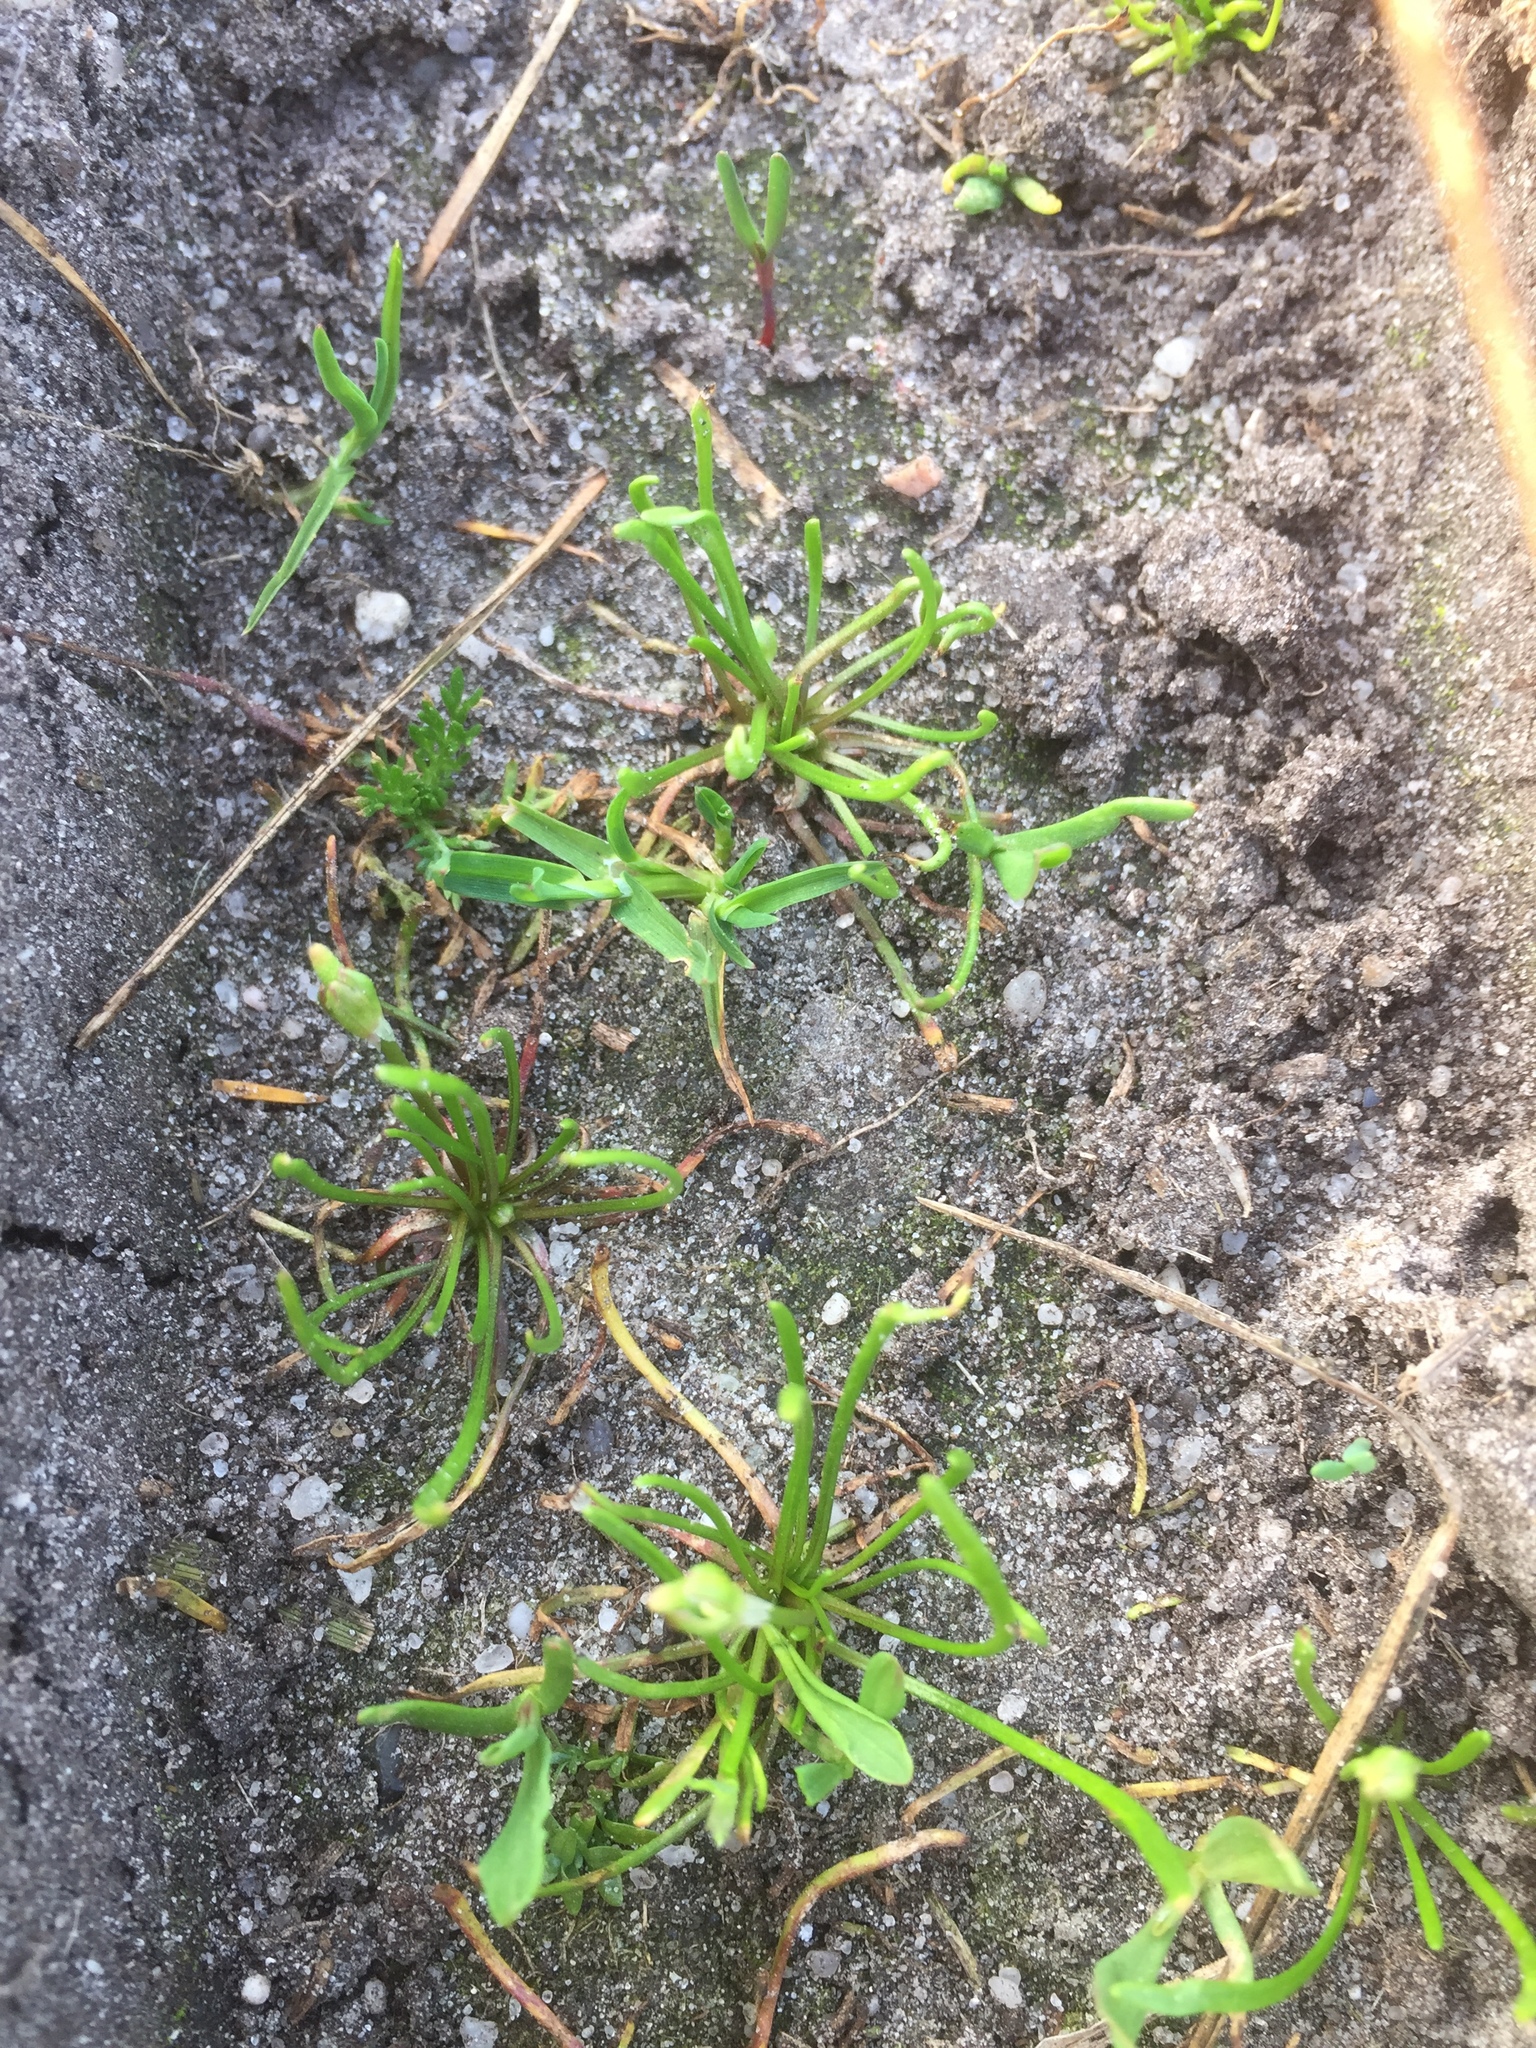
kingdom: Plantae
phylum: Tracheophyta
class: Magnoliopsida
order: Ranunculales
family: Ranunculaceae
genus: Myosurus
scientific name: Myosurus minimus
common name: Mousetail
